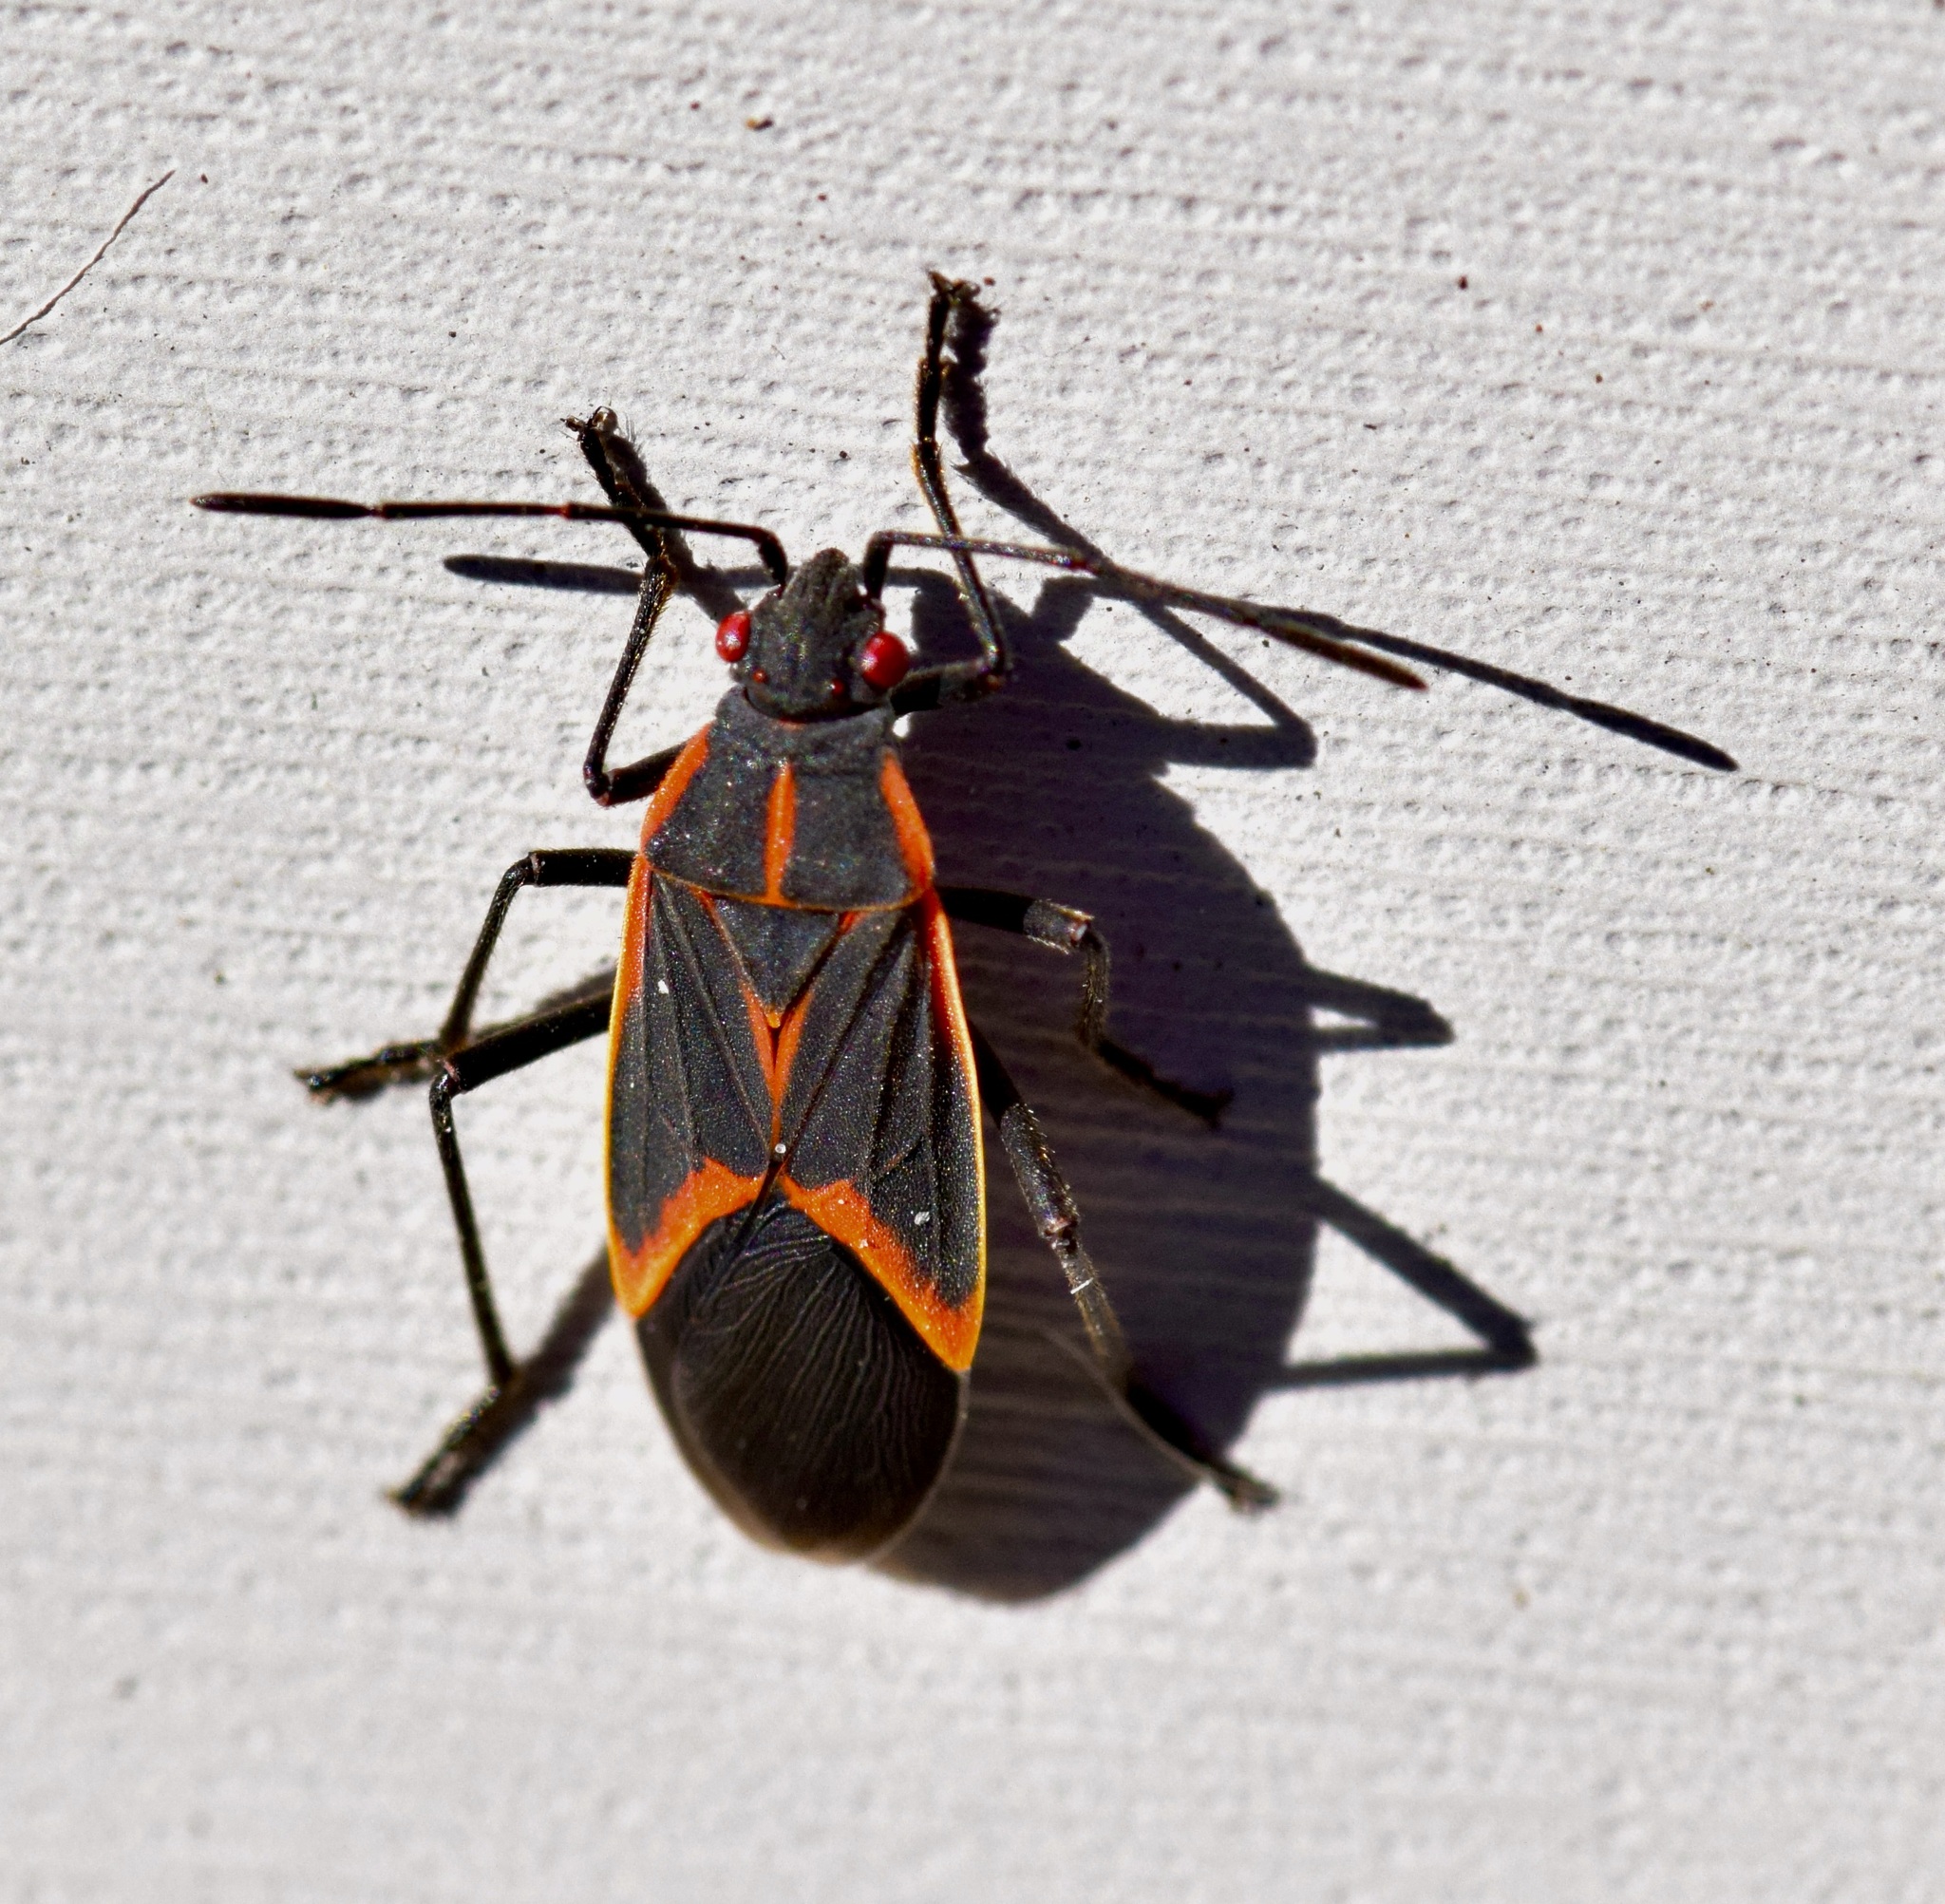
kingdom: Animalia
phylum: Arthropoda
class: Insecta
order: Hemiptera
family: Rhopalidae
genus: Boisea
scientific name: Boisea trivittata
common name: Boxelder bug
